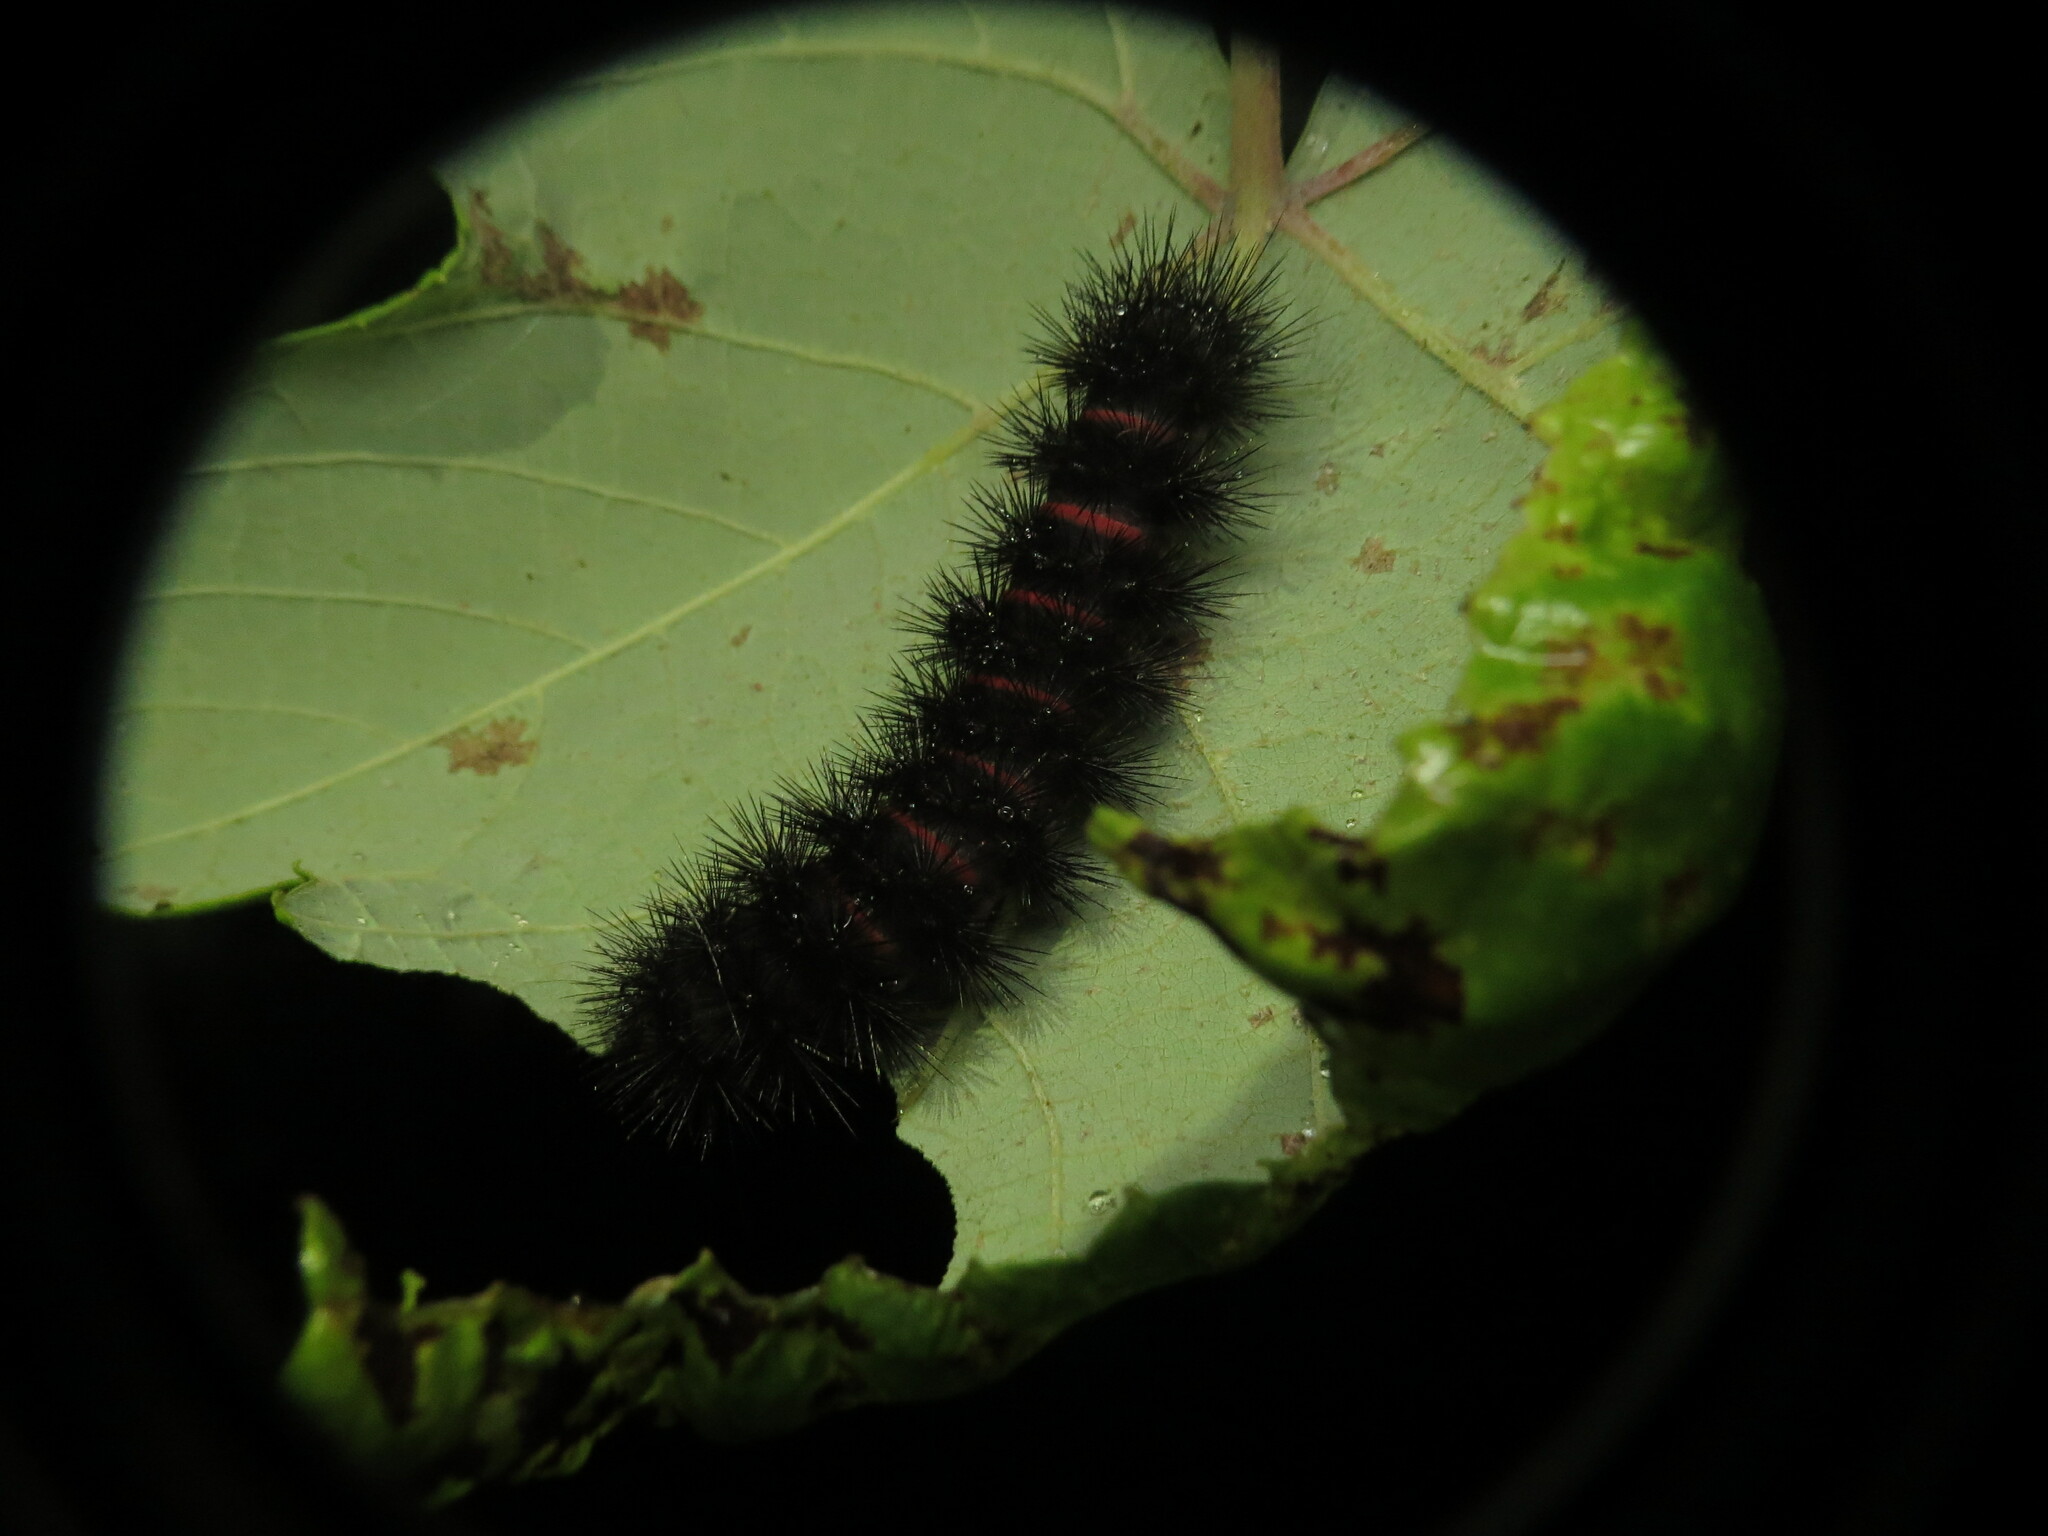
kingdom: Animalia
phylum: Arthropoda
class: Insecta
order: Lepidoptera
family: Erebidae
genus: Hypercompe
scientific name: Hypercompe scribonia
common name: Giant leopard moth
